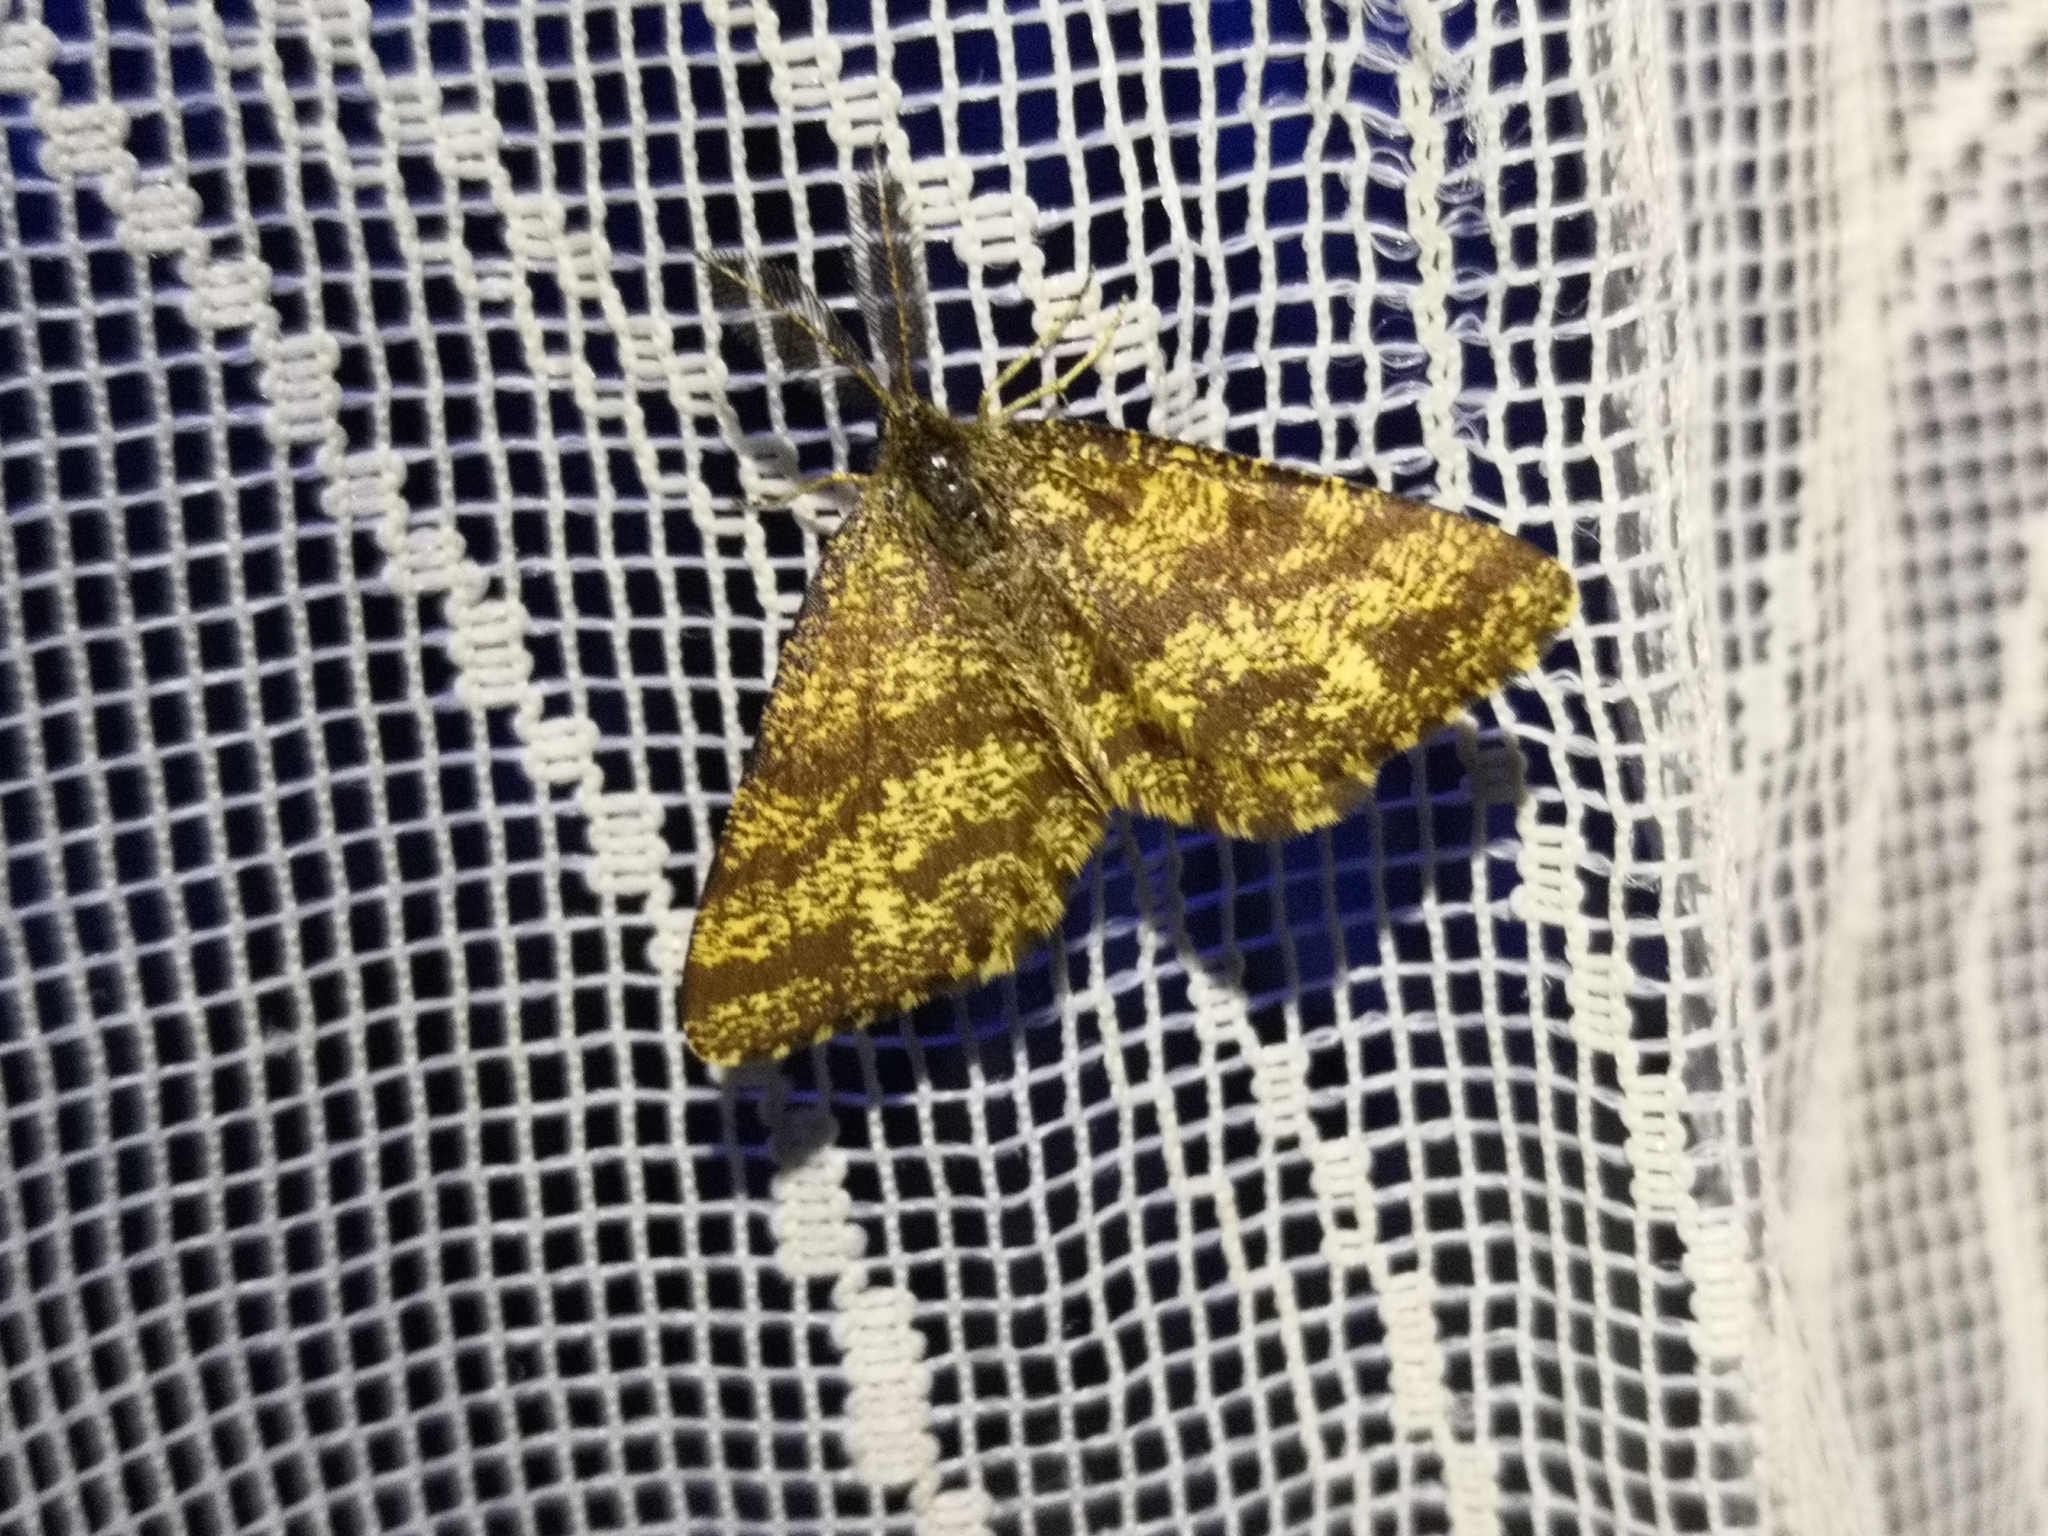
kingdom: Animalia
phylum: Arthropoda
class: Insecta
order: Lepidoptera
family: Geometridae
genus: Ematurga
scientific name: Ematurga atomaria
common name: Common heath
